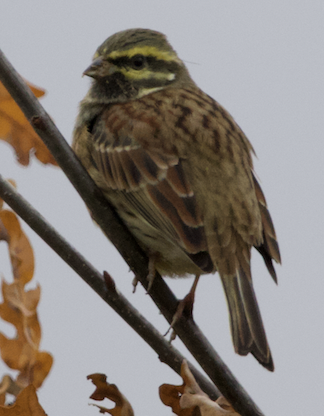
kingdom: Animalia
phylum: Chordata
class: Aves
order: Passeriformes
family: Emberizidae
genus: Emberiza
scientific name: Emberiza cirlus
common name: Cirl bunting
